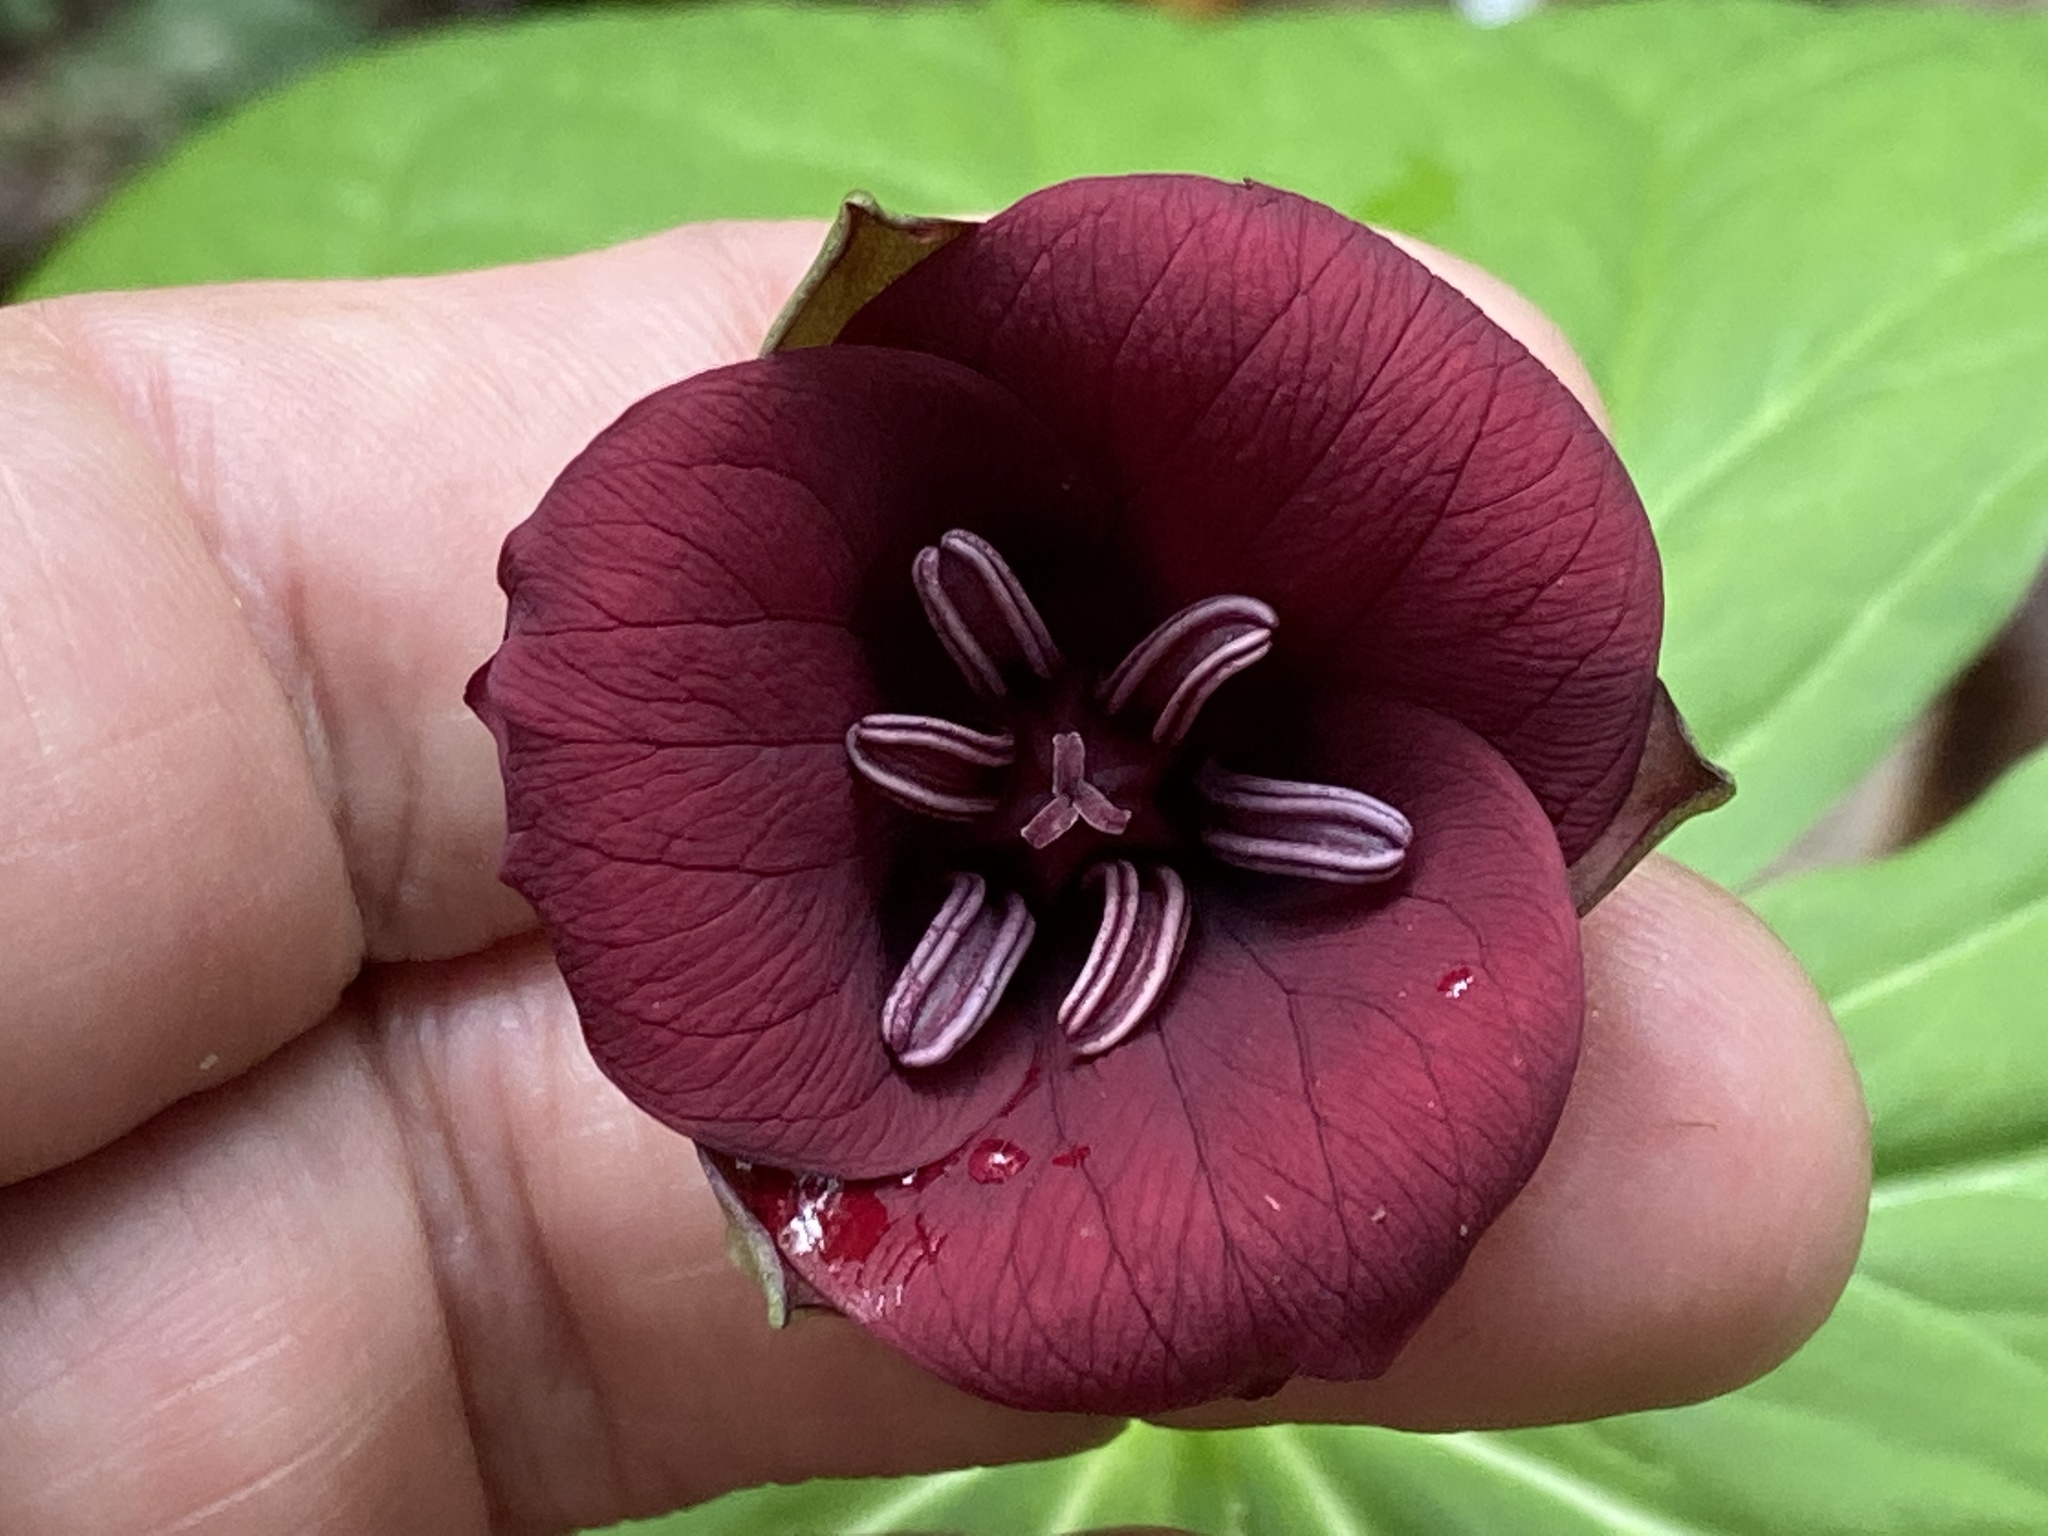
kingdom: Plantae
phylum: Tracheophyta
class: Liliopsida
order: Liliales
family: Melanthiaceae
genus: Trillium
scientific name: Trillium sulcatum
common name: Barksdale trillium
